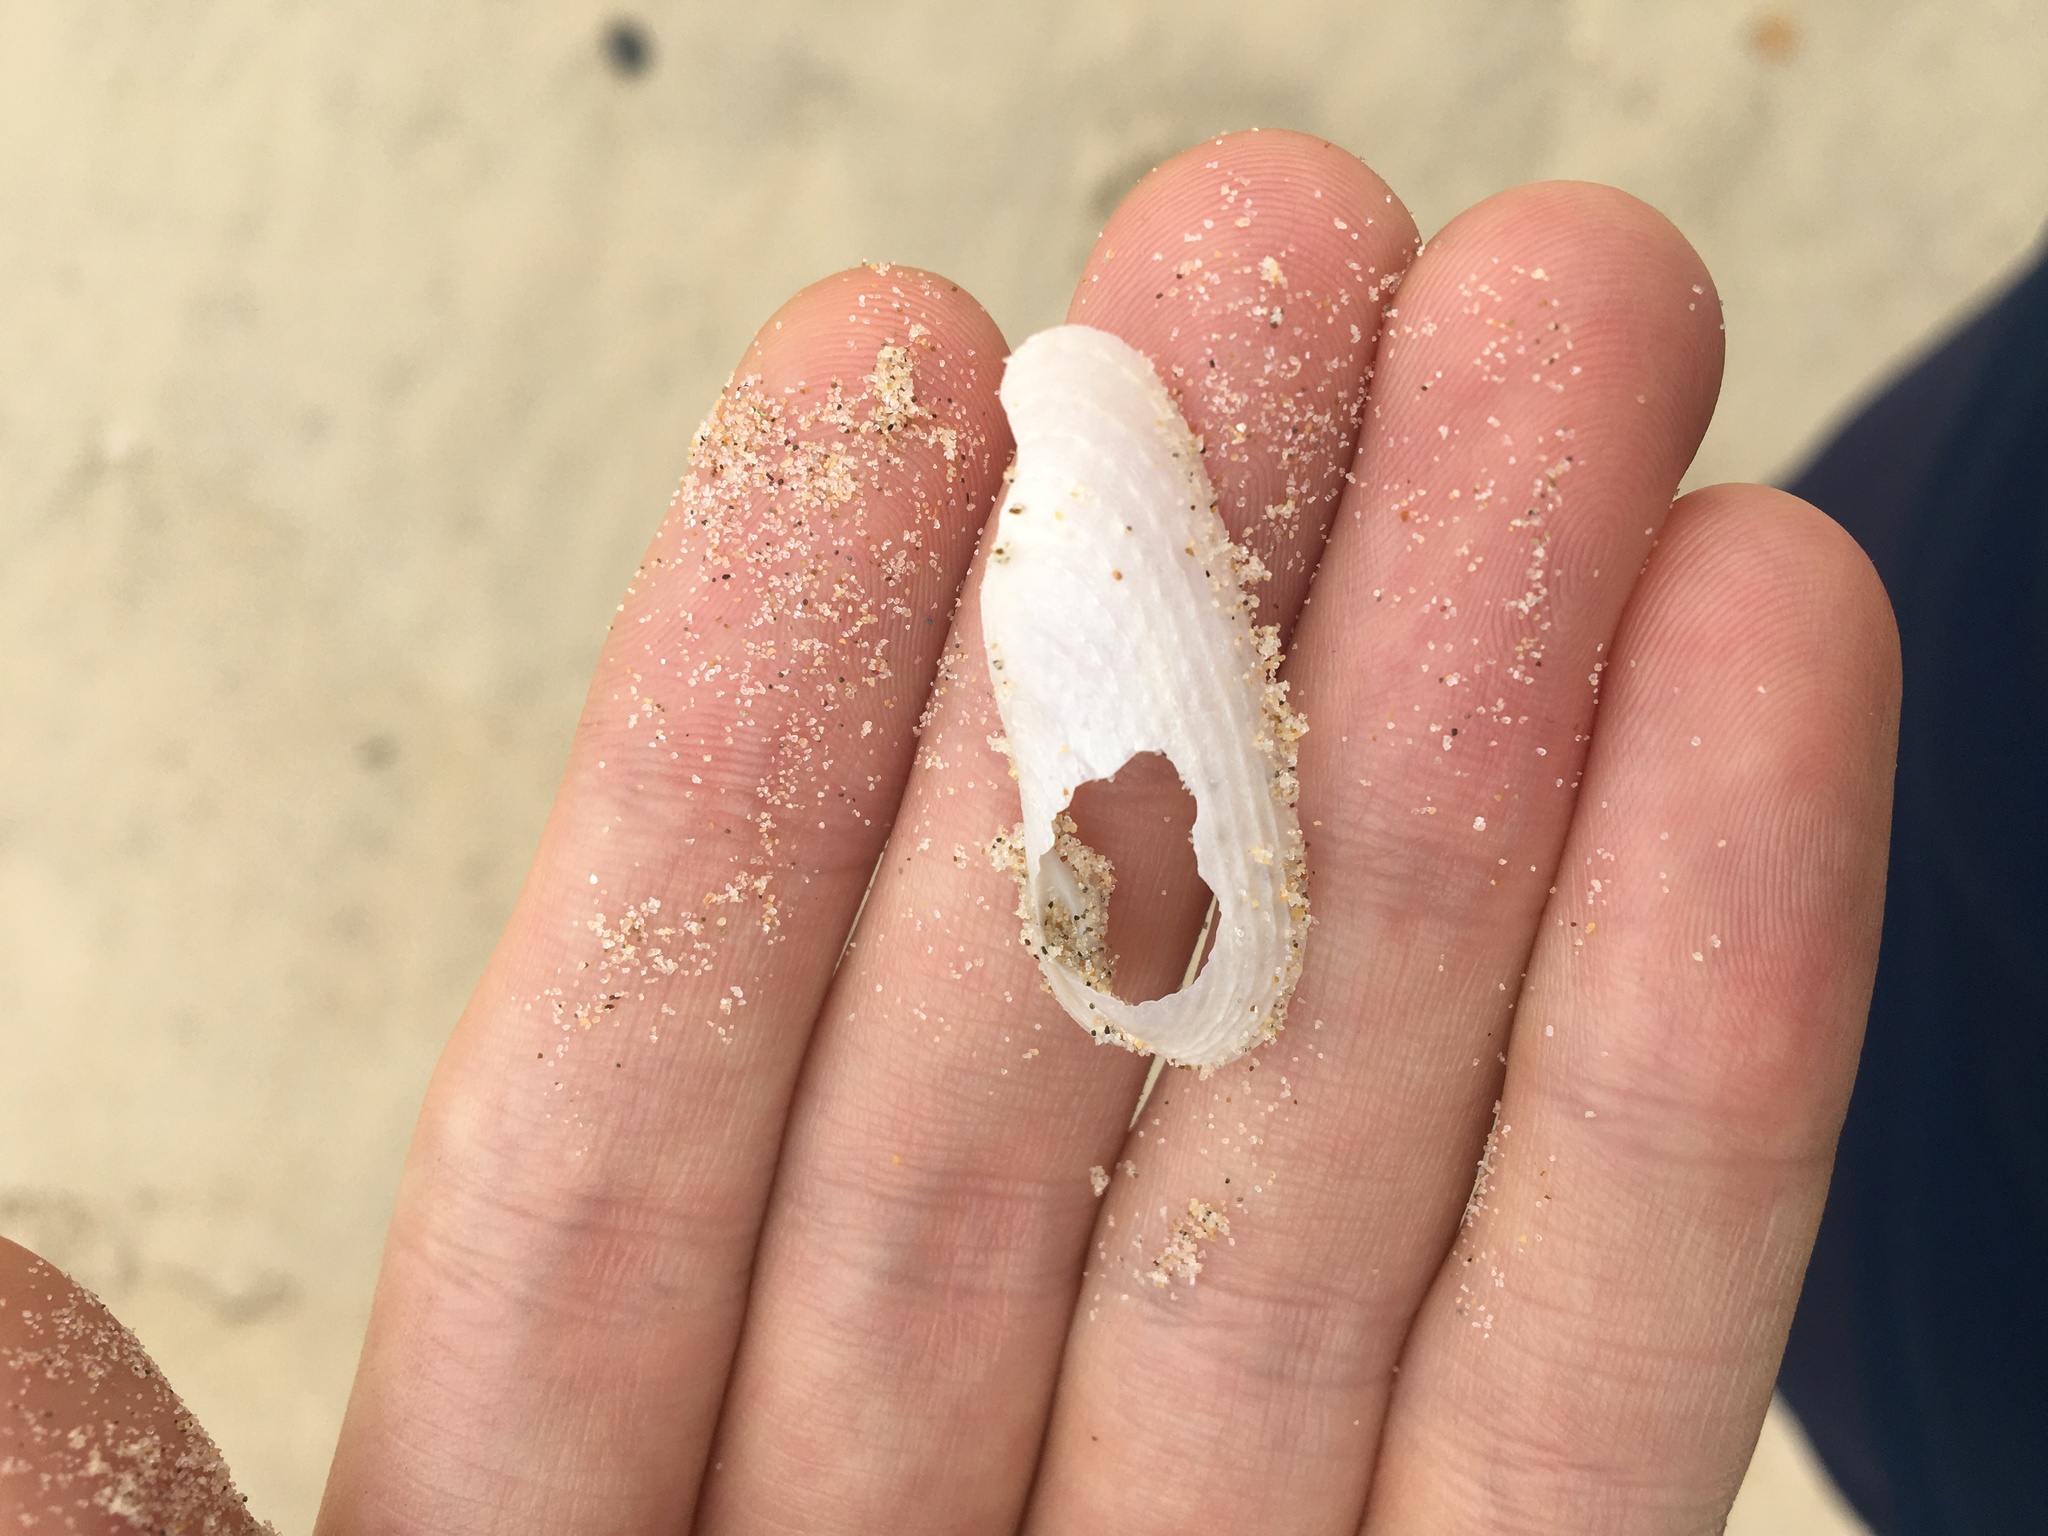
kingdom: Animalia
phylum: Mollusca
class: Bivalvia
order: Myida
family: Pholadidae
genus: Barnea
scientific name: Barnea australasiae
